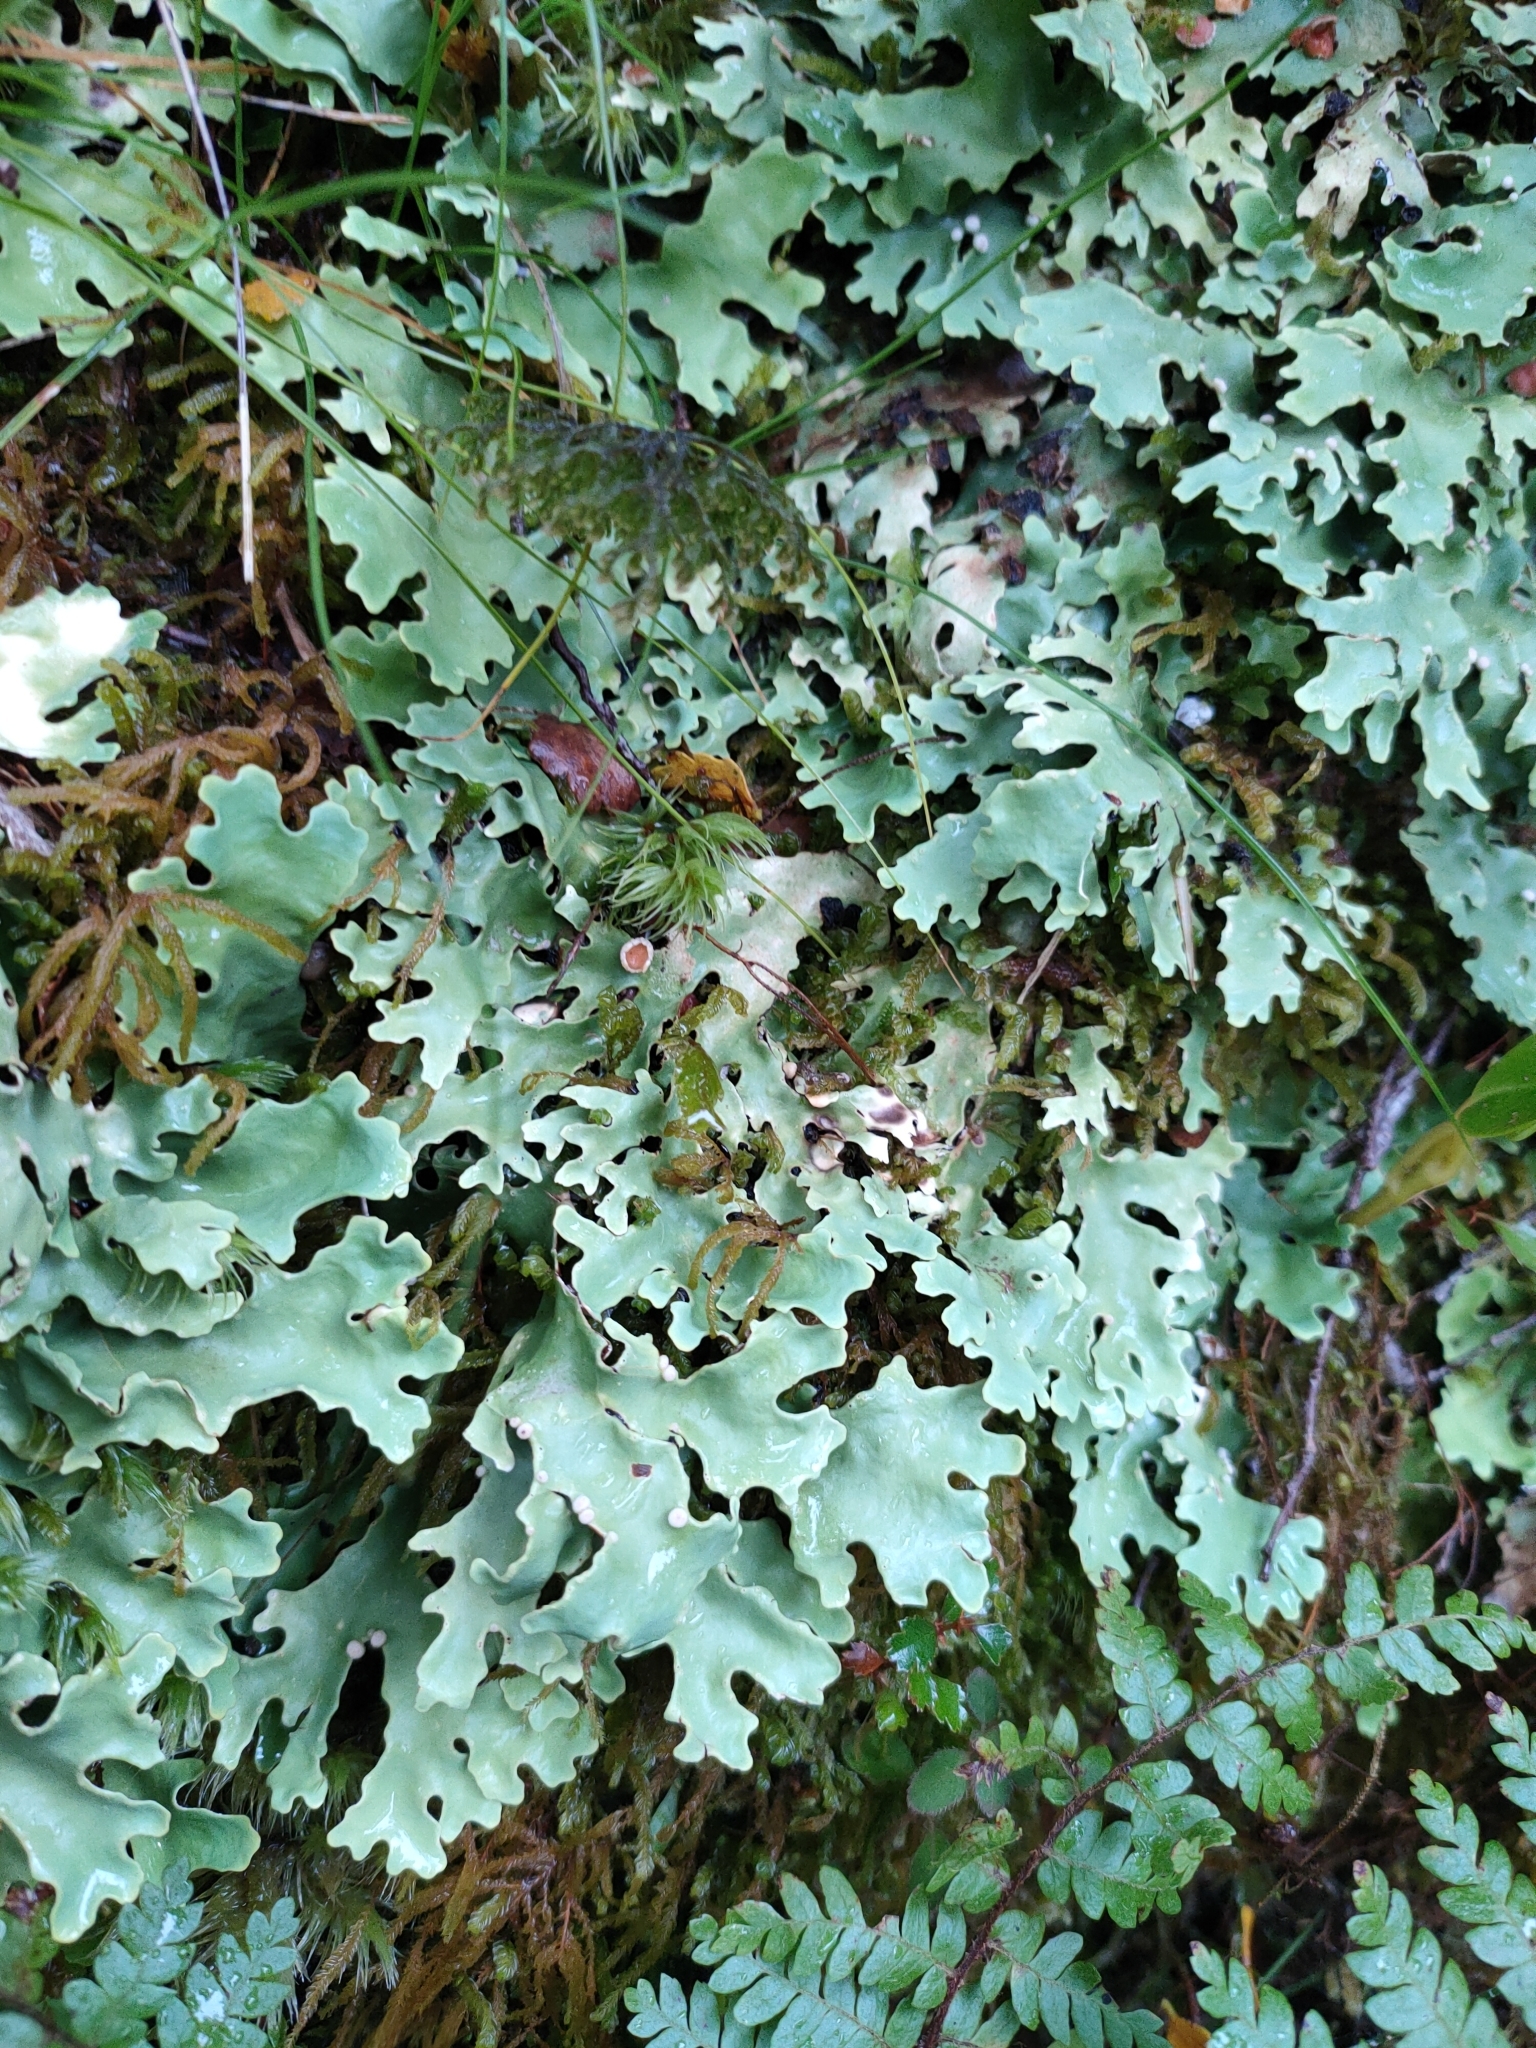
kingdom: Fungi
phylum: Ascomycota
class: Lecanoromycetes
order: Peltigerales
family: Lobariaceae
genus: Pseudocyphellaria
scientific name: Pseudocyphellaria homeophylla
